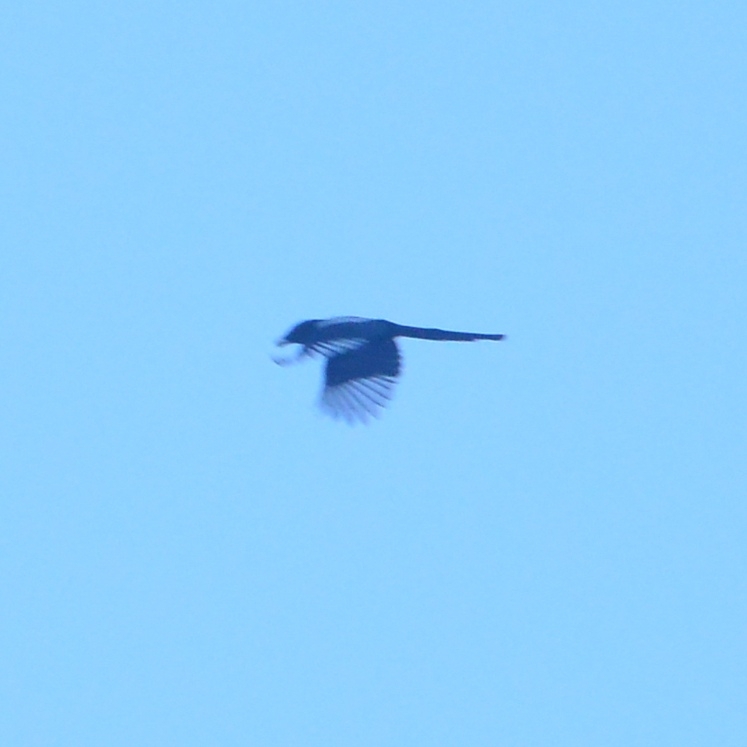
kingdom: Animalia
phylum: Chordata
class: Aves
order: Passeriformes
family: Corvidae
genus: Pica
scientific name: Pica pica
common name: Eurasian magpie
